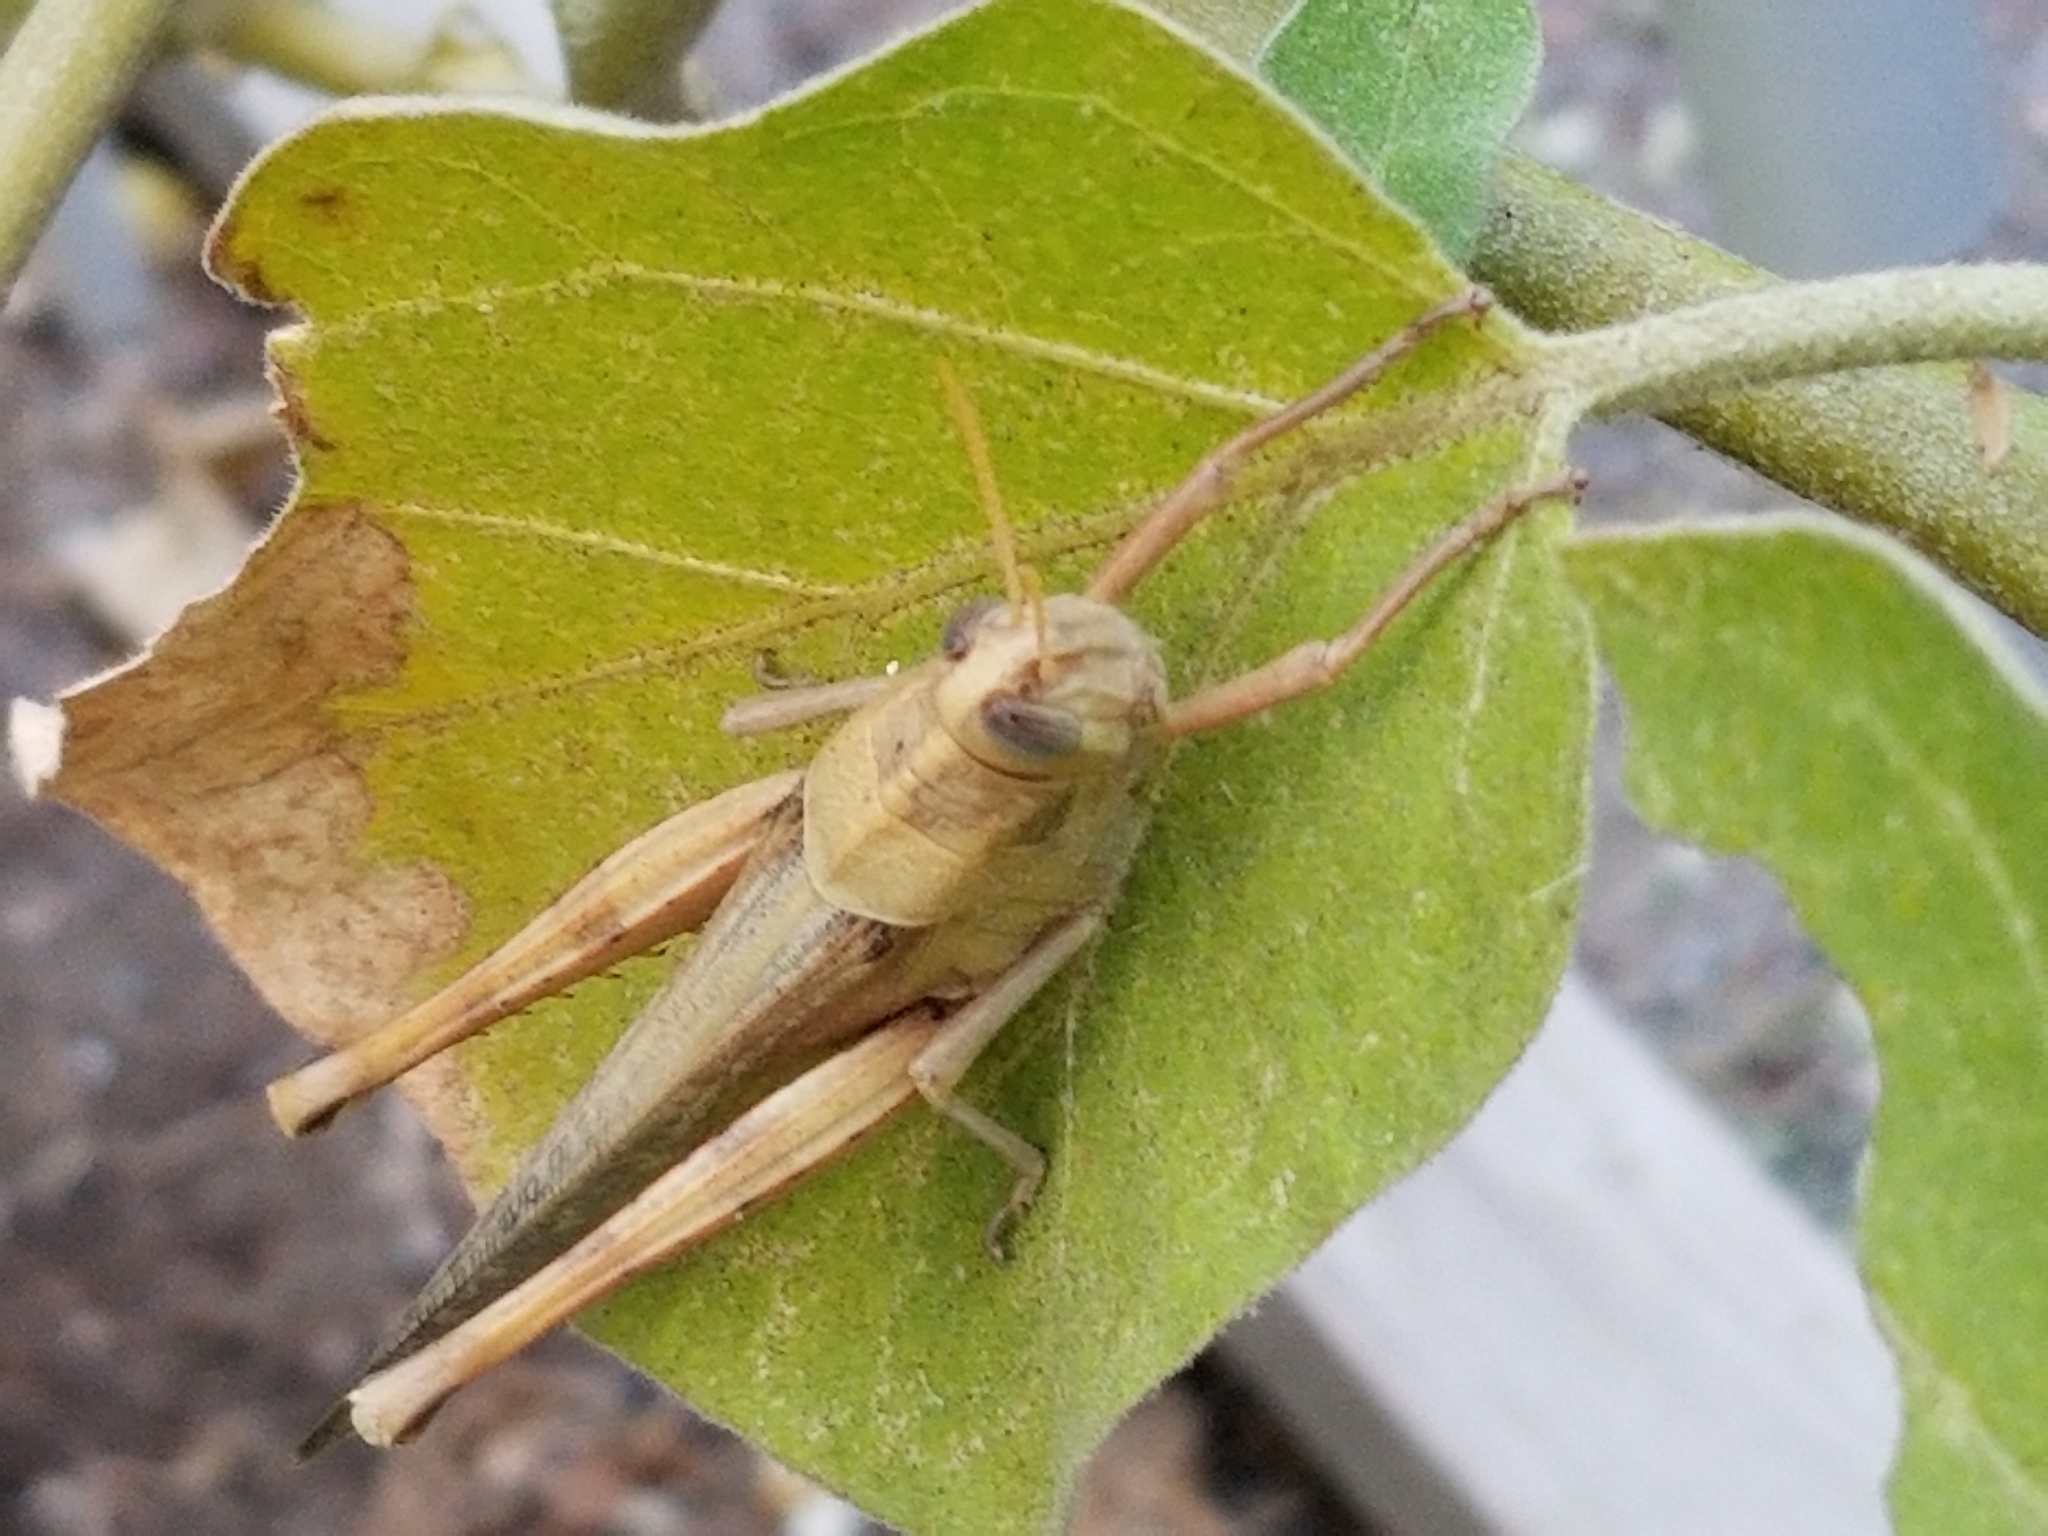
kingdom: Animalia
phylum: Arthropoda
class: Insecta
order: Orthoptera
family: Acrididae
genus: Schistocerca
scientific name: Schistocerca nitens
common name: Vagrant grasshopper
